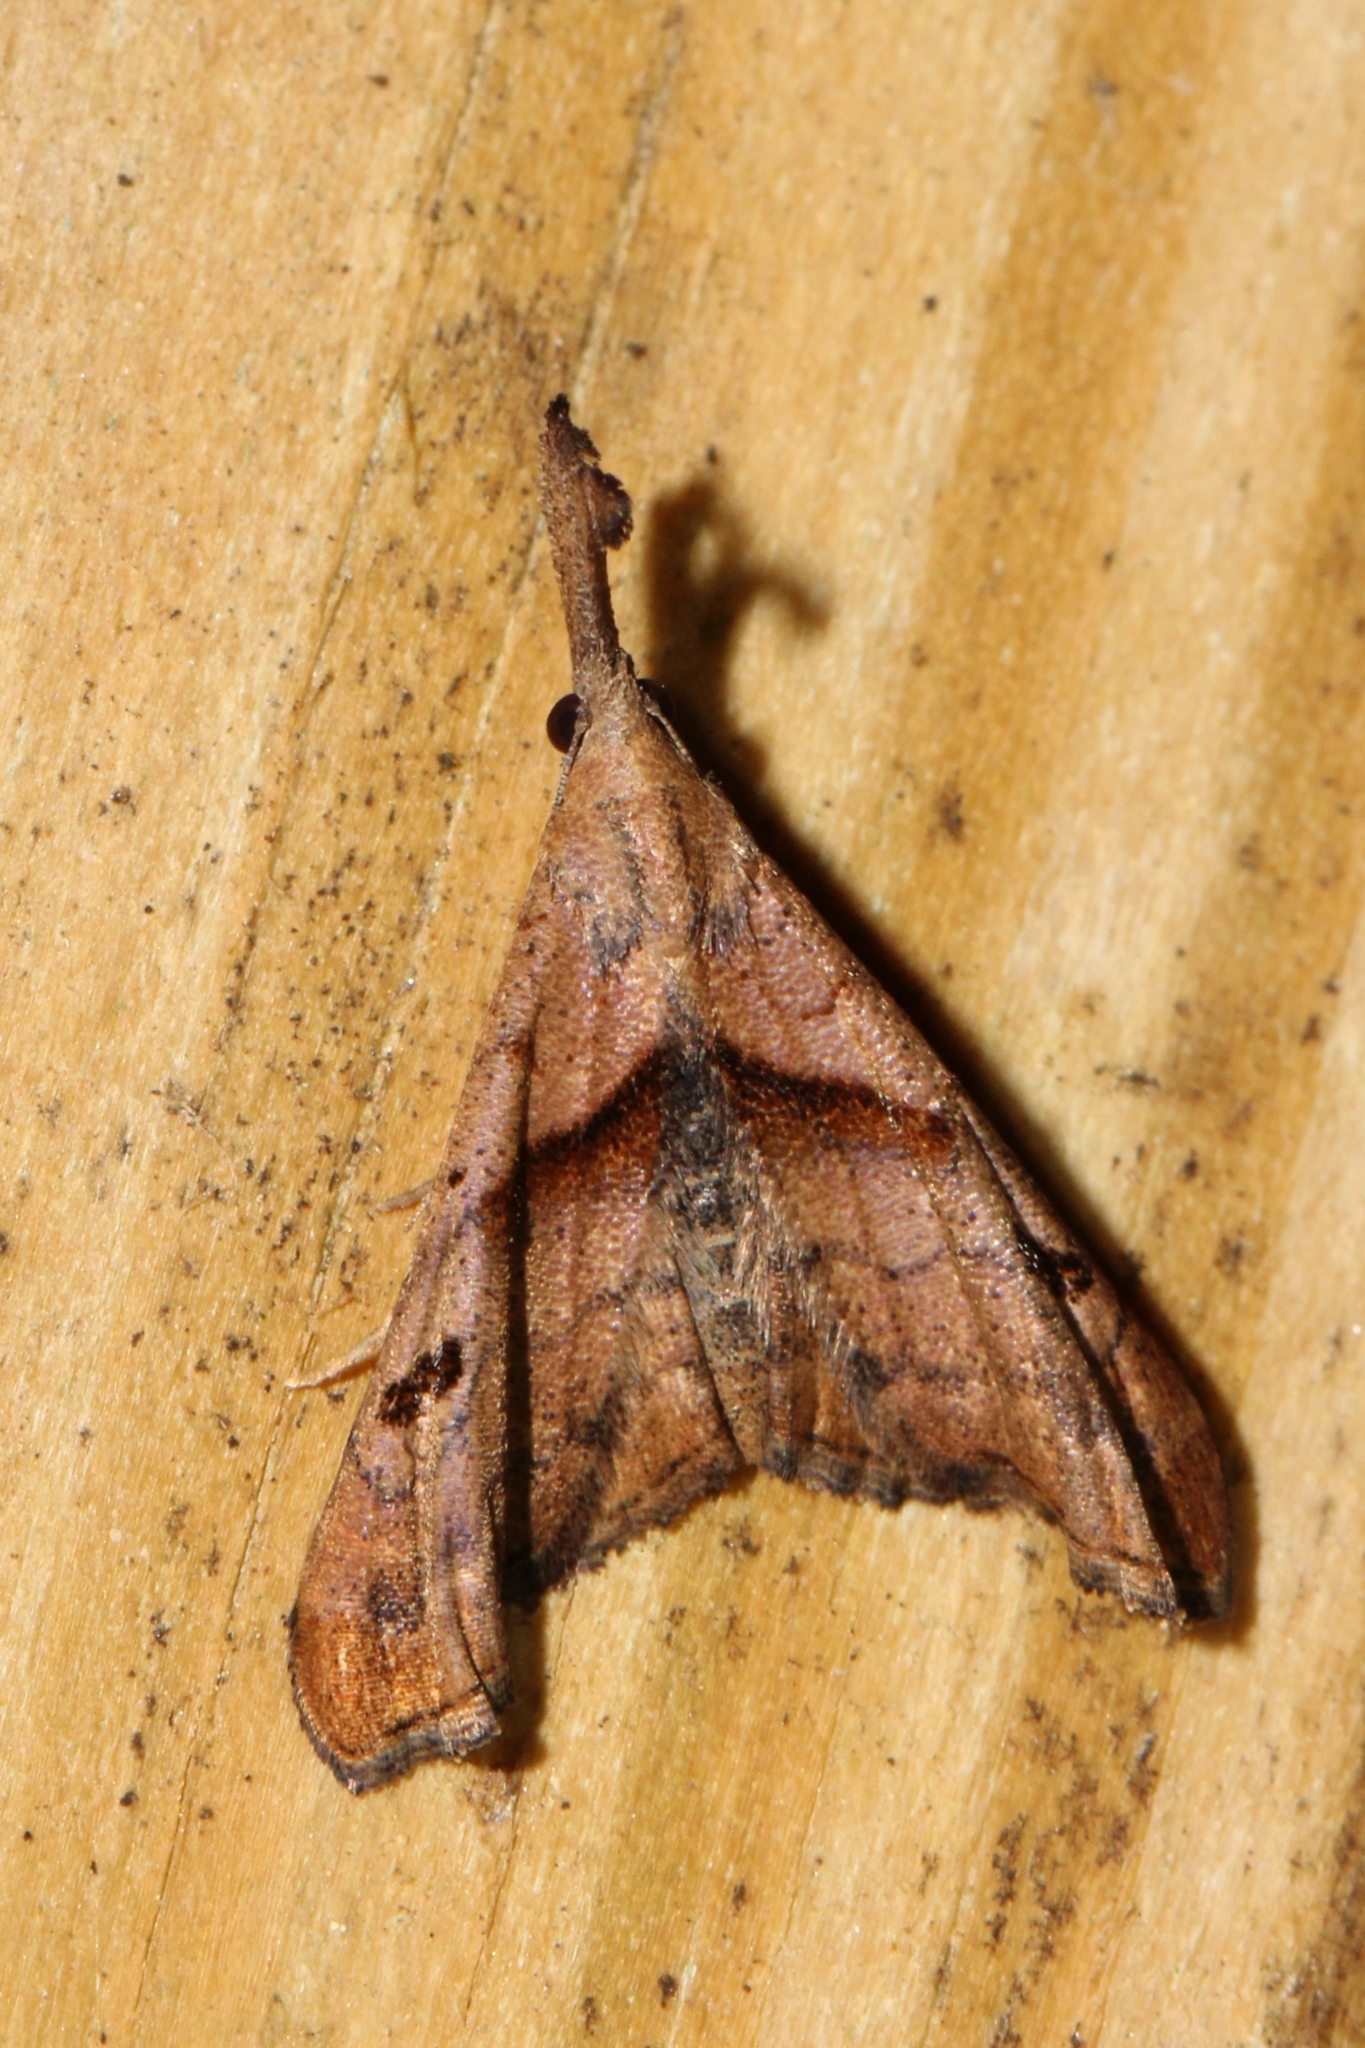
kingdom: Animalia
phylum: Arthropoda
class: Insecta
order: Lepidoptera
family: Erebidae
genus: Palthis
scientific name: Palthis angulalis
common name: Dark-spotted palthis moth
